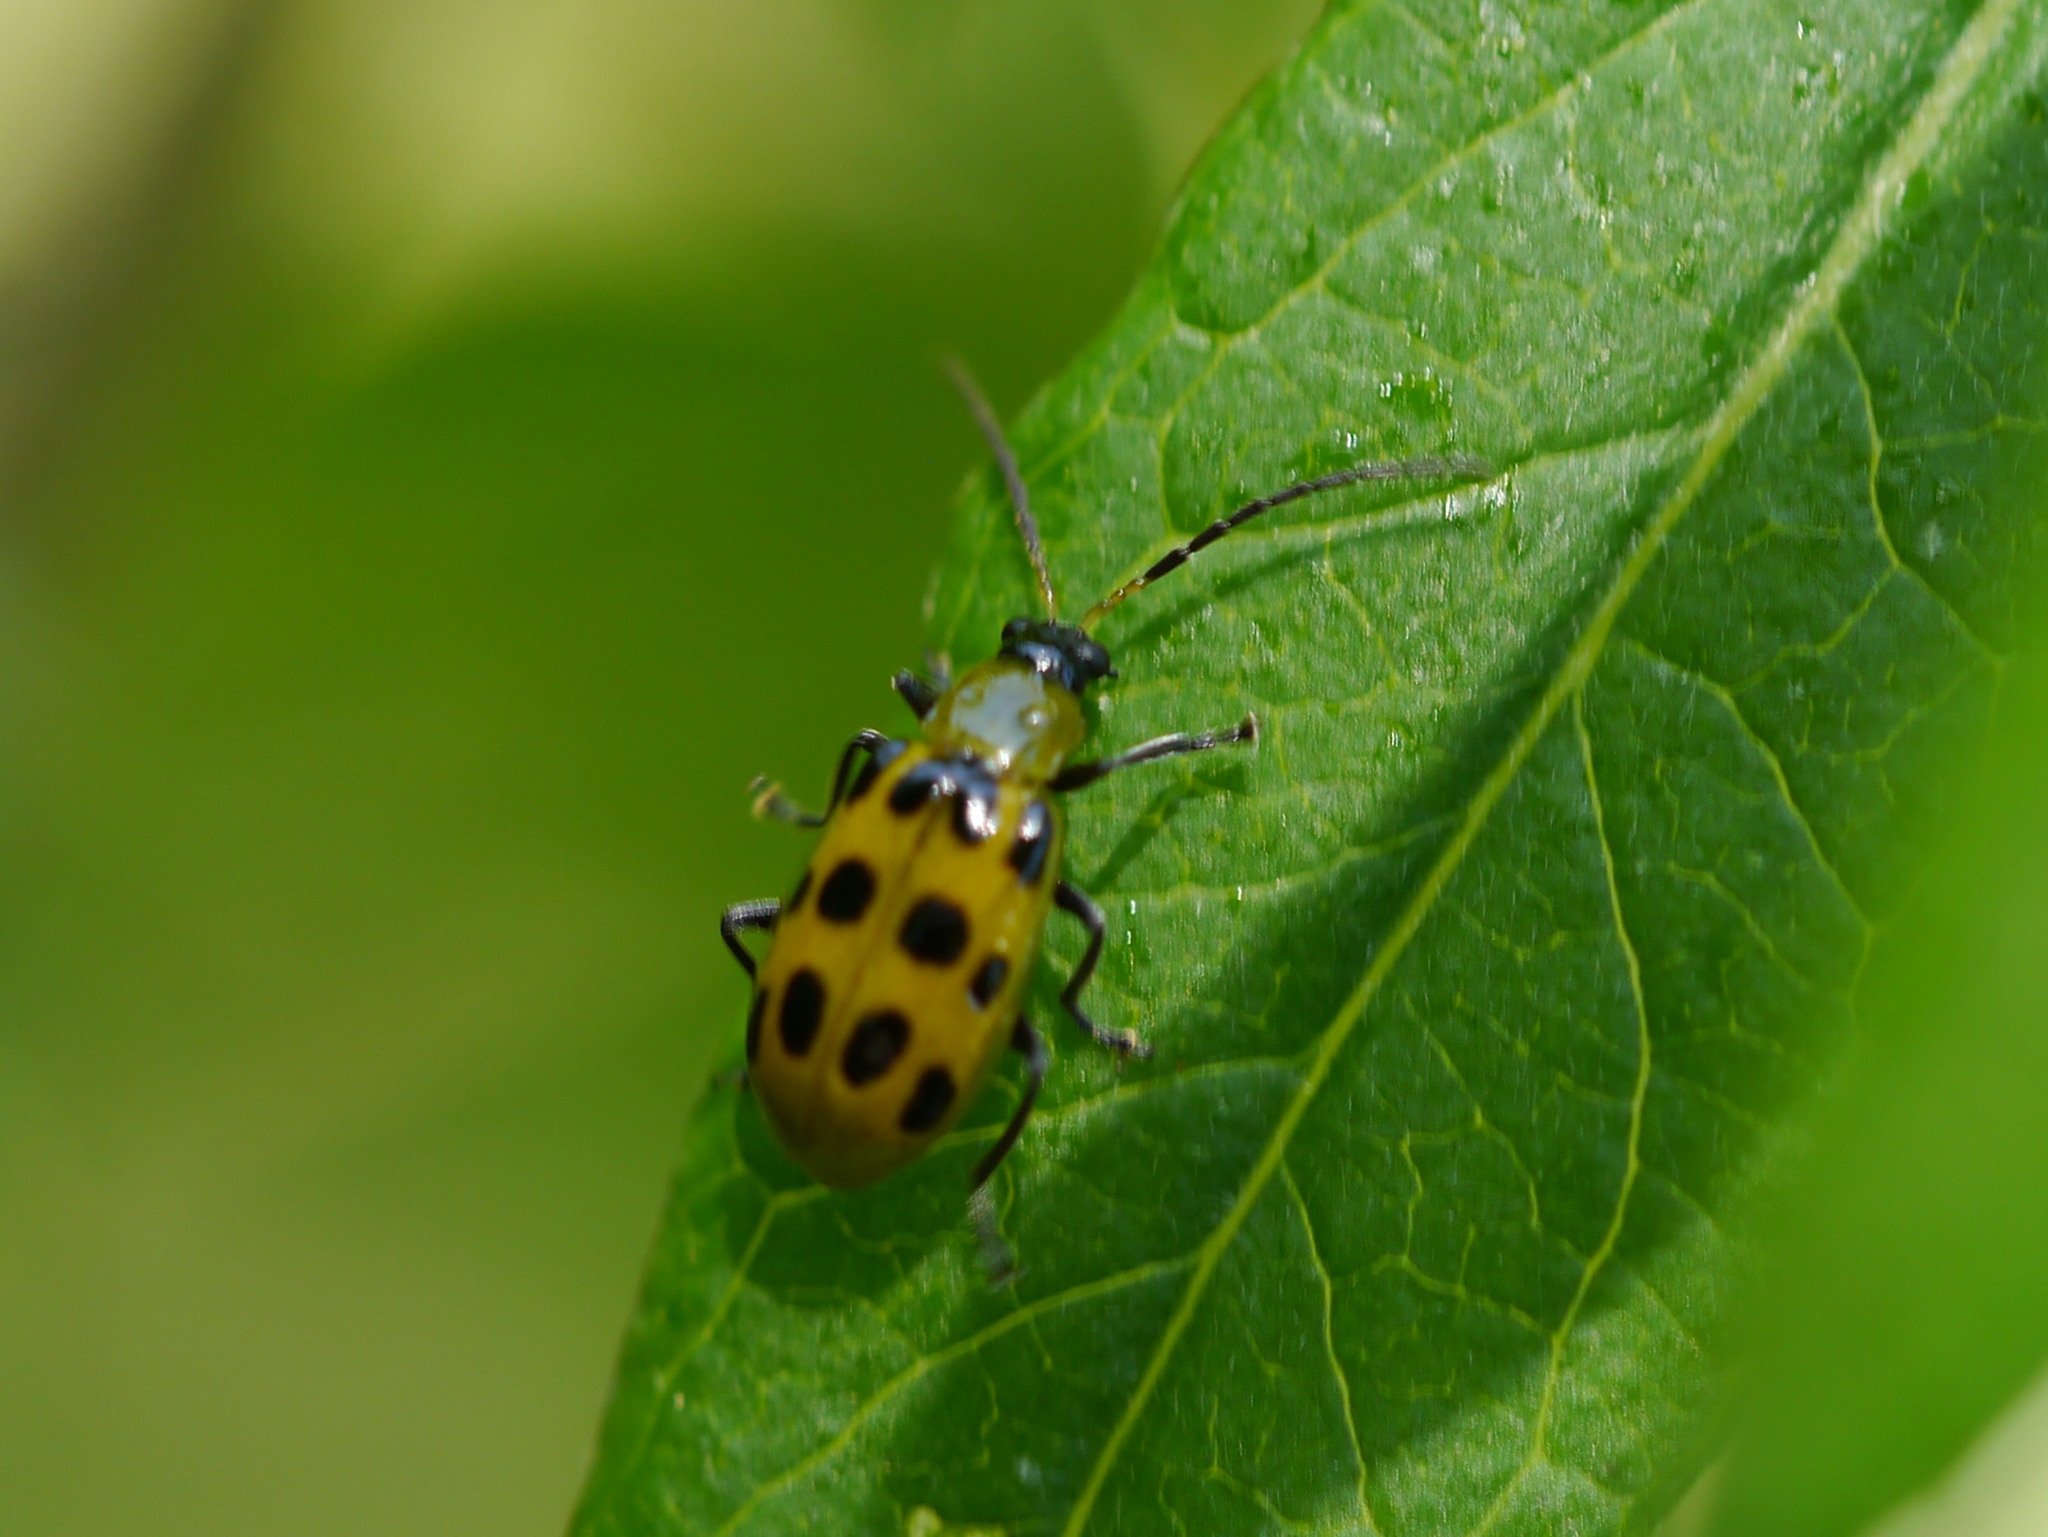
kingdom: Animalia
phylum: Arthropoda
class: Insecta
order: Coleoptera
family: Chrysomelidae
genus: Diabrotica
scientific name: Diabrotica undecimpunctata
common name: Spotted cucumber beetle
